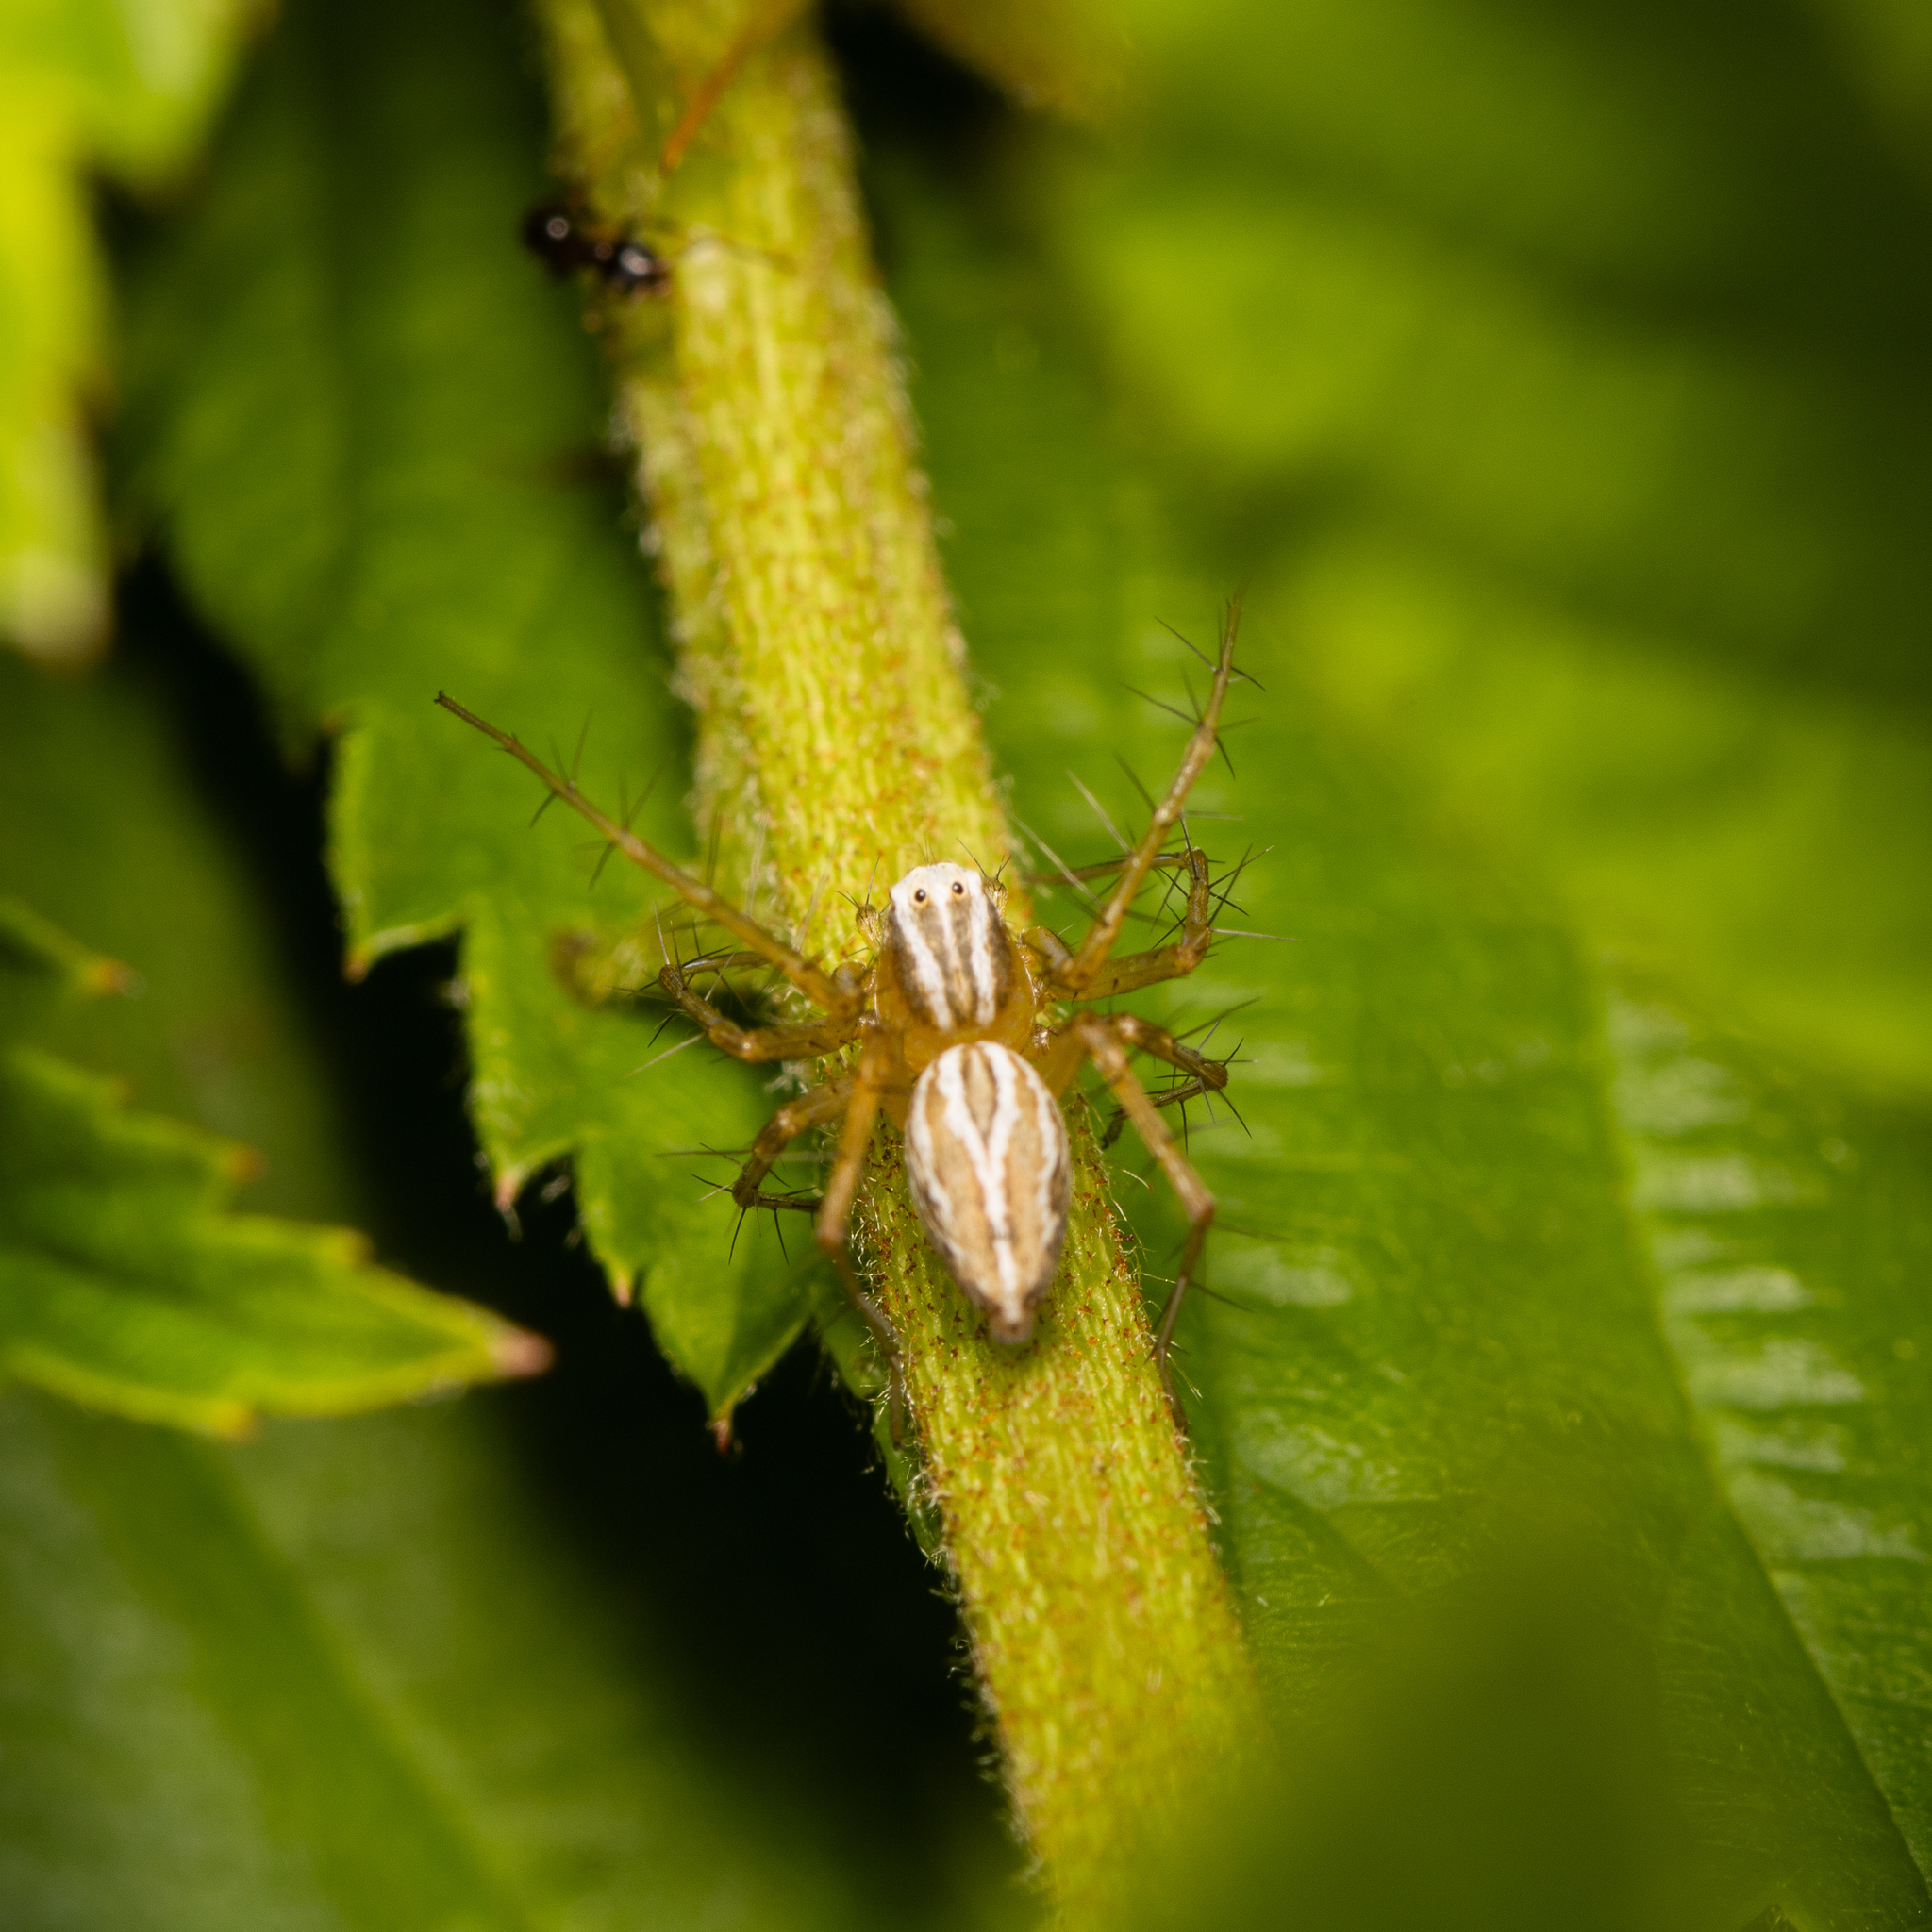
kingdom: Animalia
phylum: Arthropoda
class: Arachnida
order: Araneae
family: Oxyopidae
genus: Oxyopes
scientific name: Oxyopes salticus
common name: Lynx spiders
